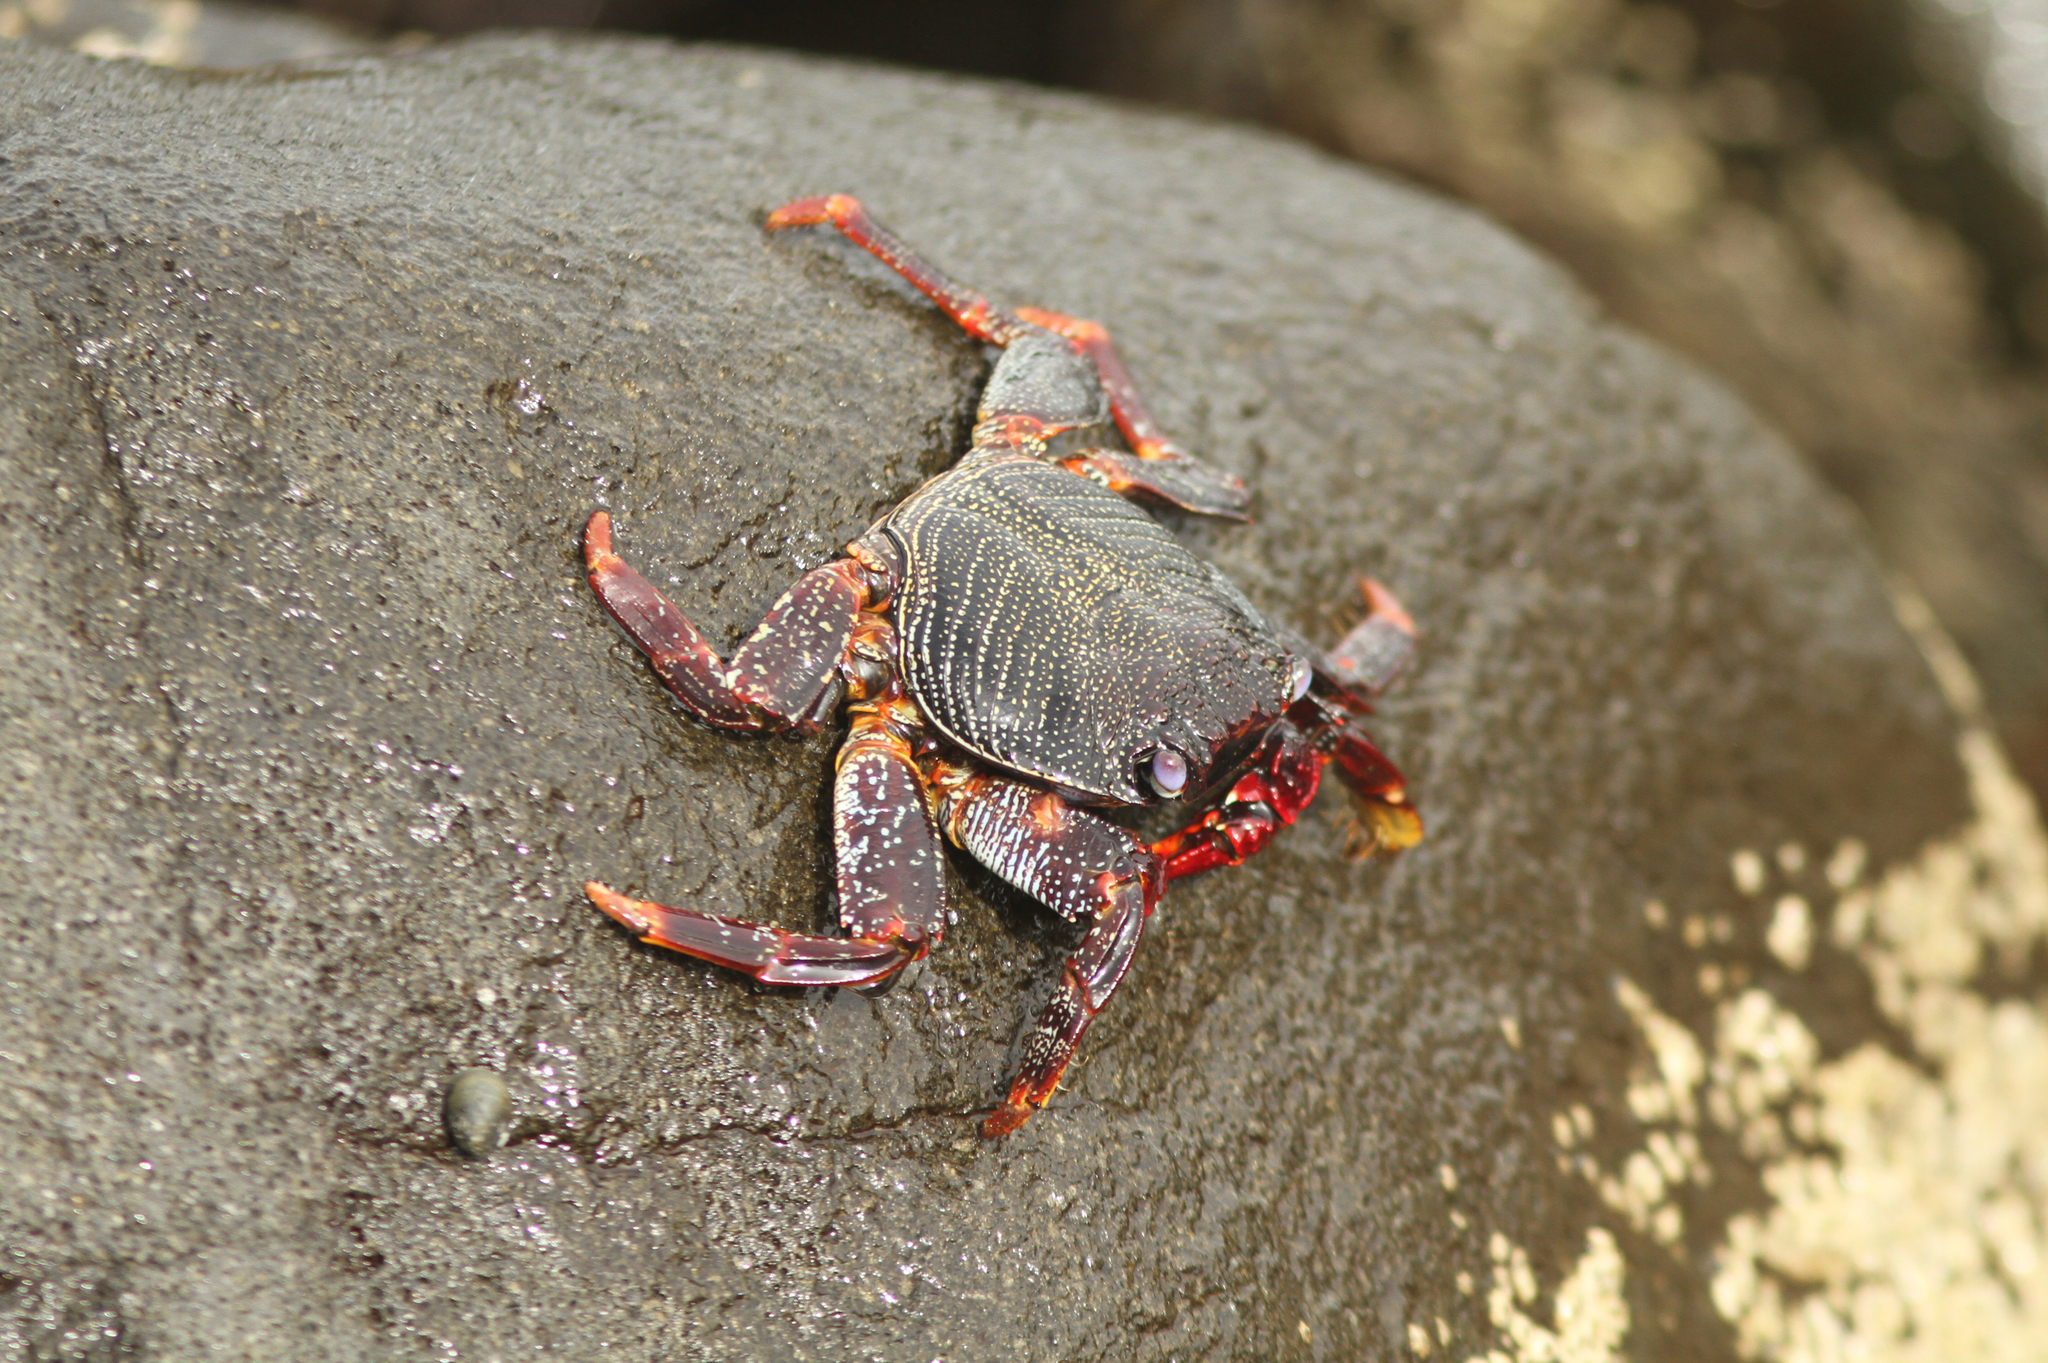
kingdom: Animalia
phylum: Arthropoda
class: Malacostraca
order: Decapoda
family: Grapsidae
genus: Grapsus
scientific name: Grapsus adscensionis
